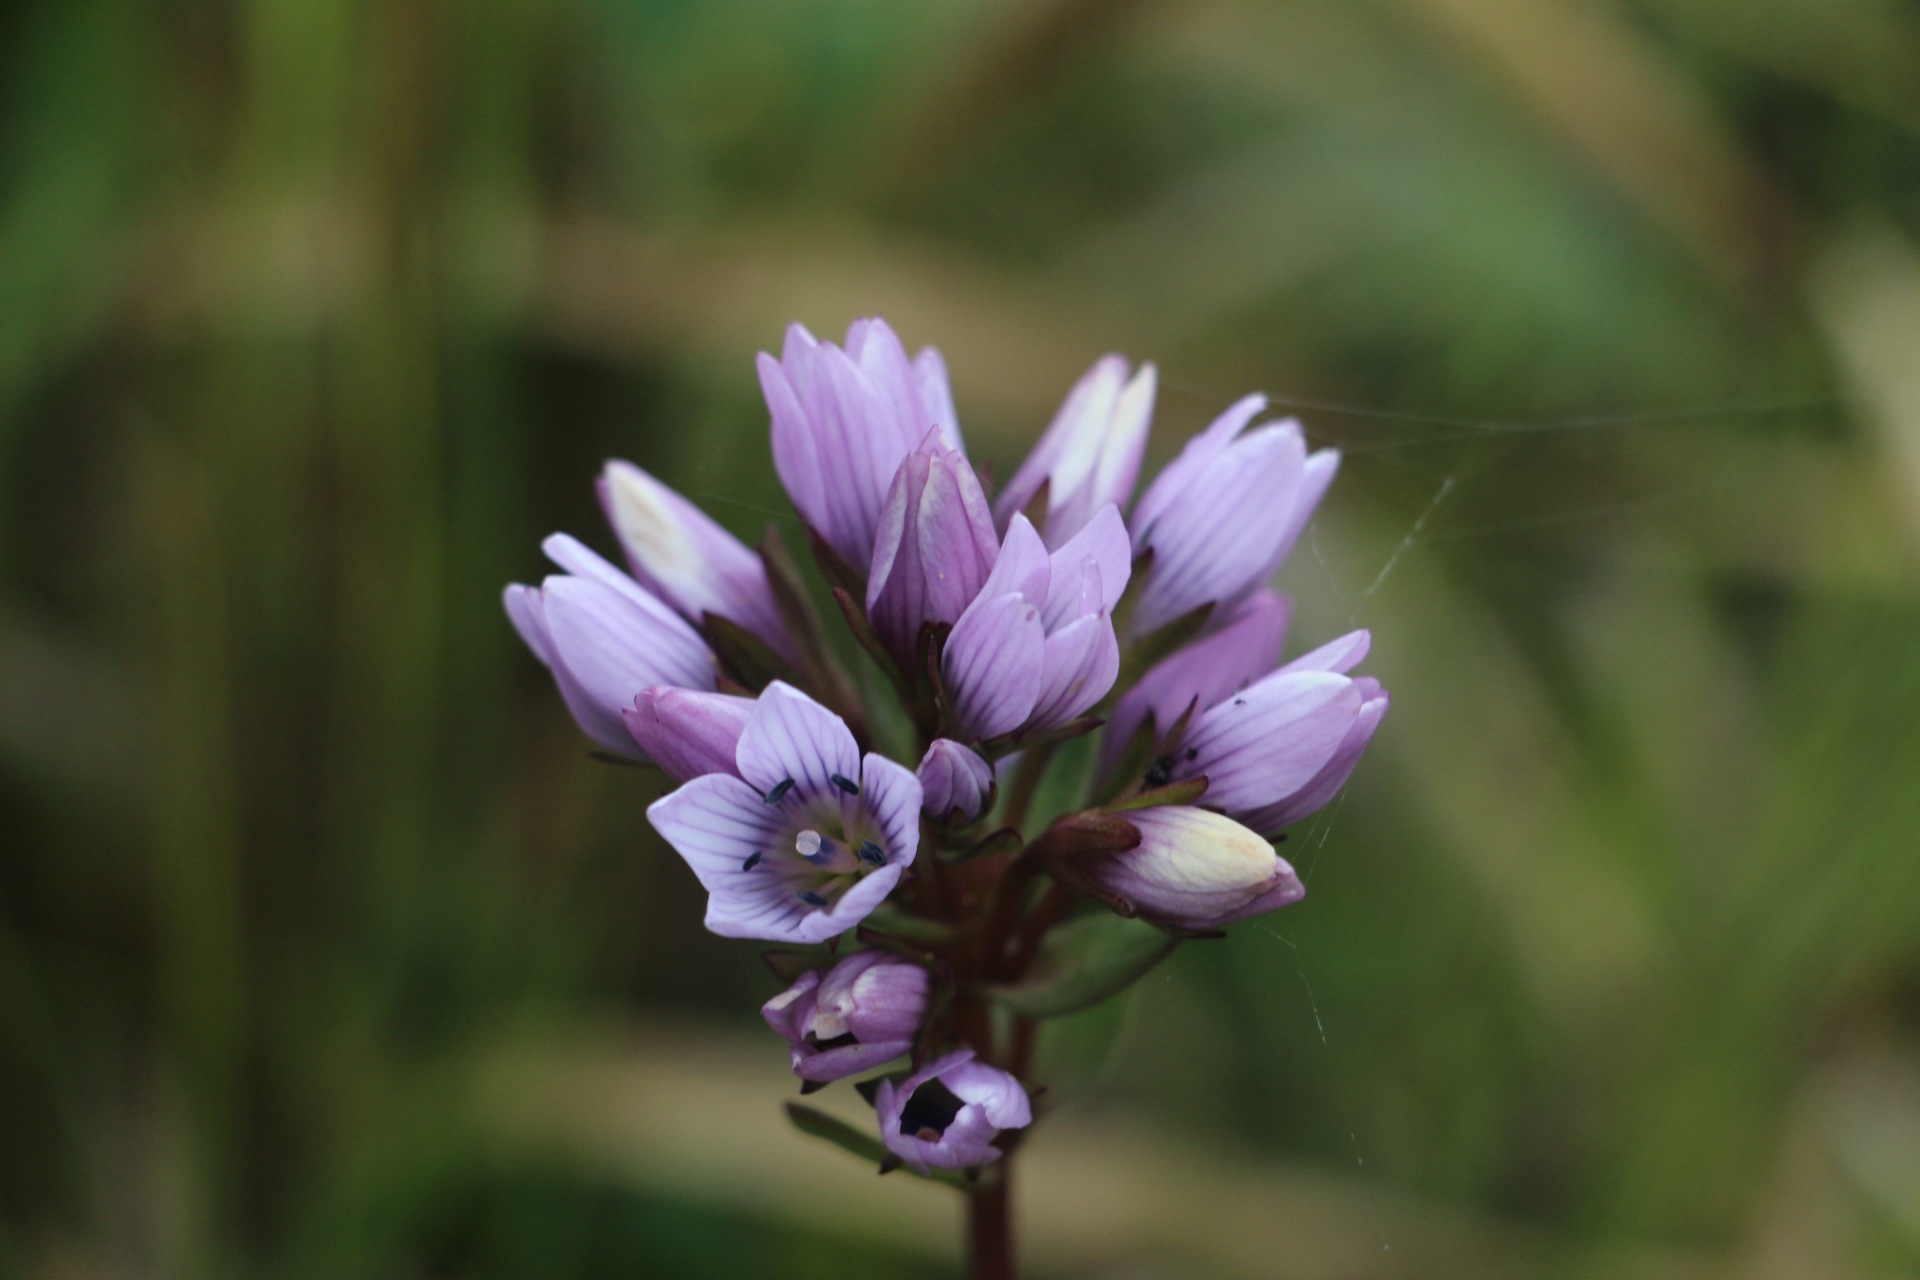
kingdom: Plantae
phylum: Tracheophyta
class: Magnoliopsida
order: Gentianales
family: Gentianaceae
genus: Gentianella
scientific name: Gentianella corymbosa
